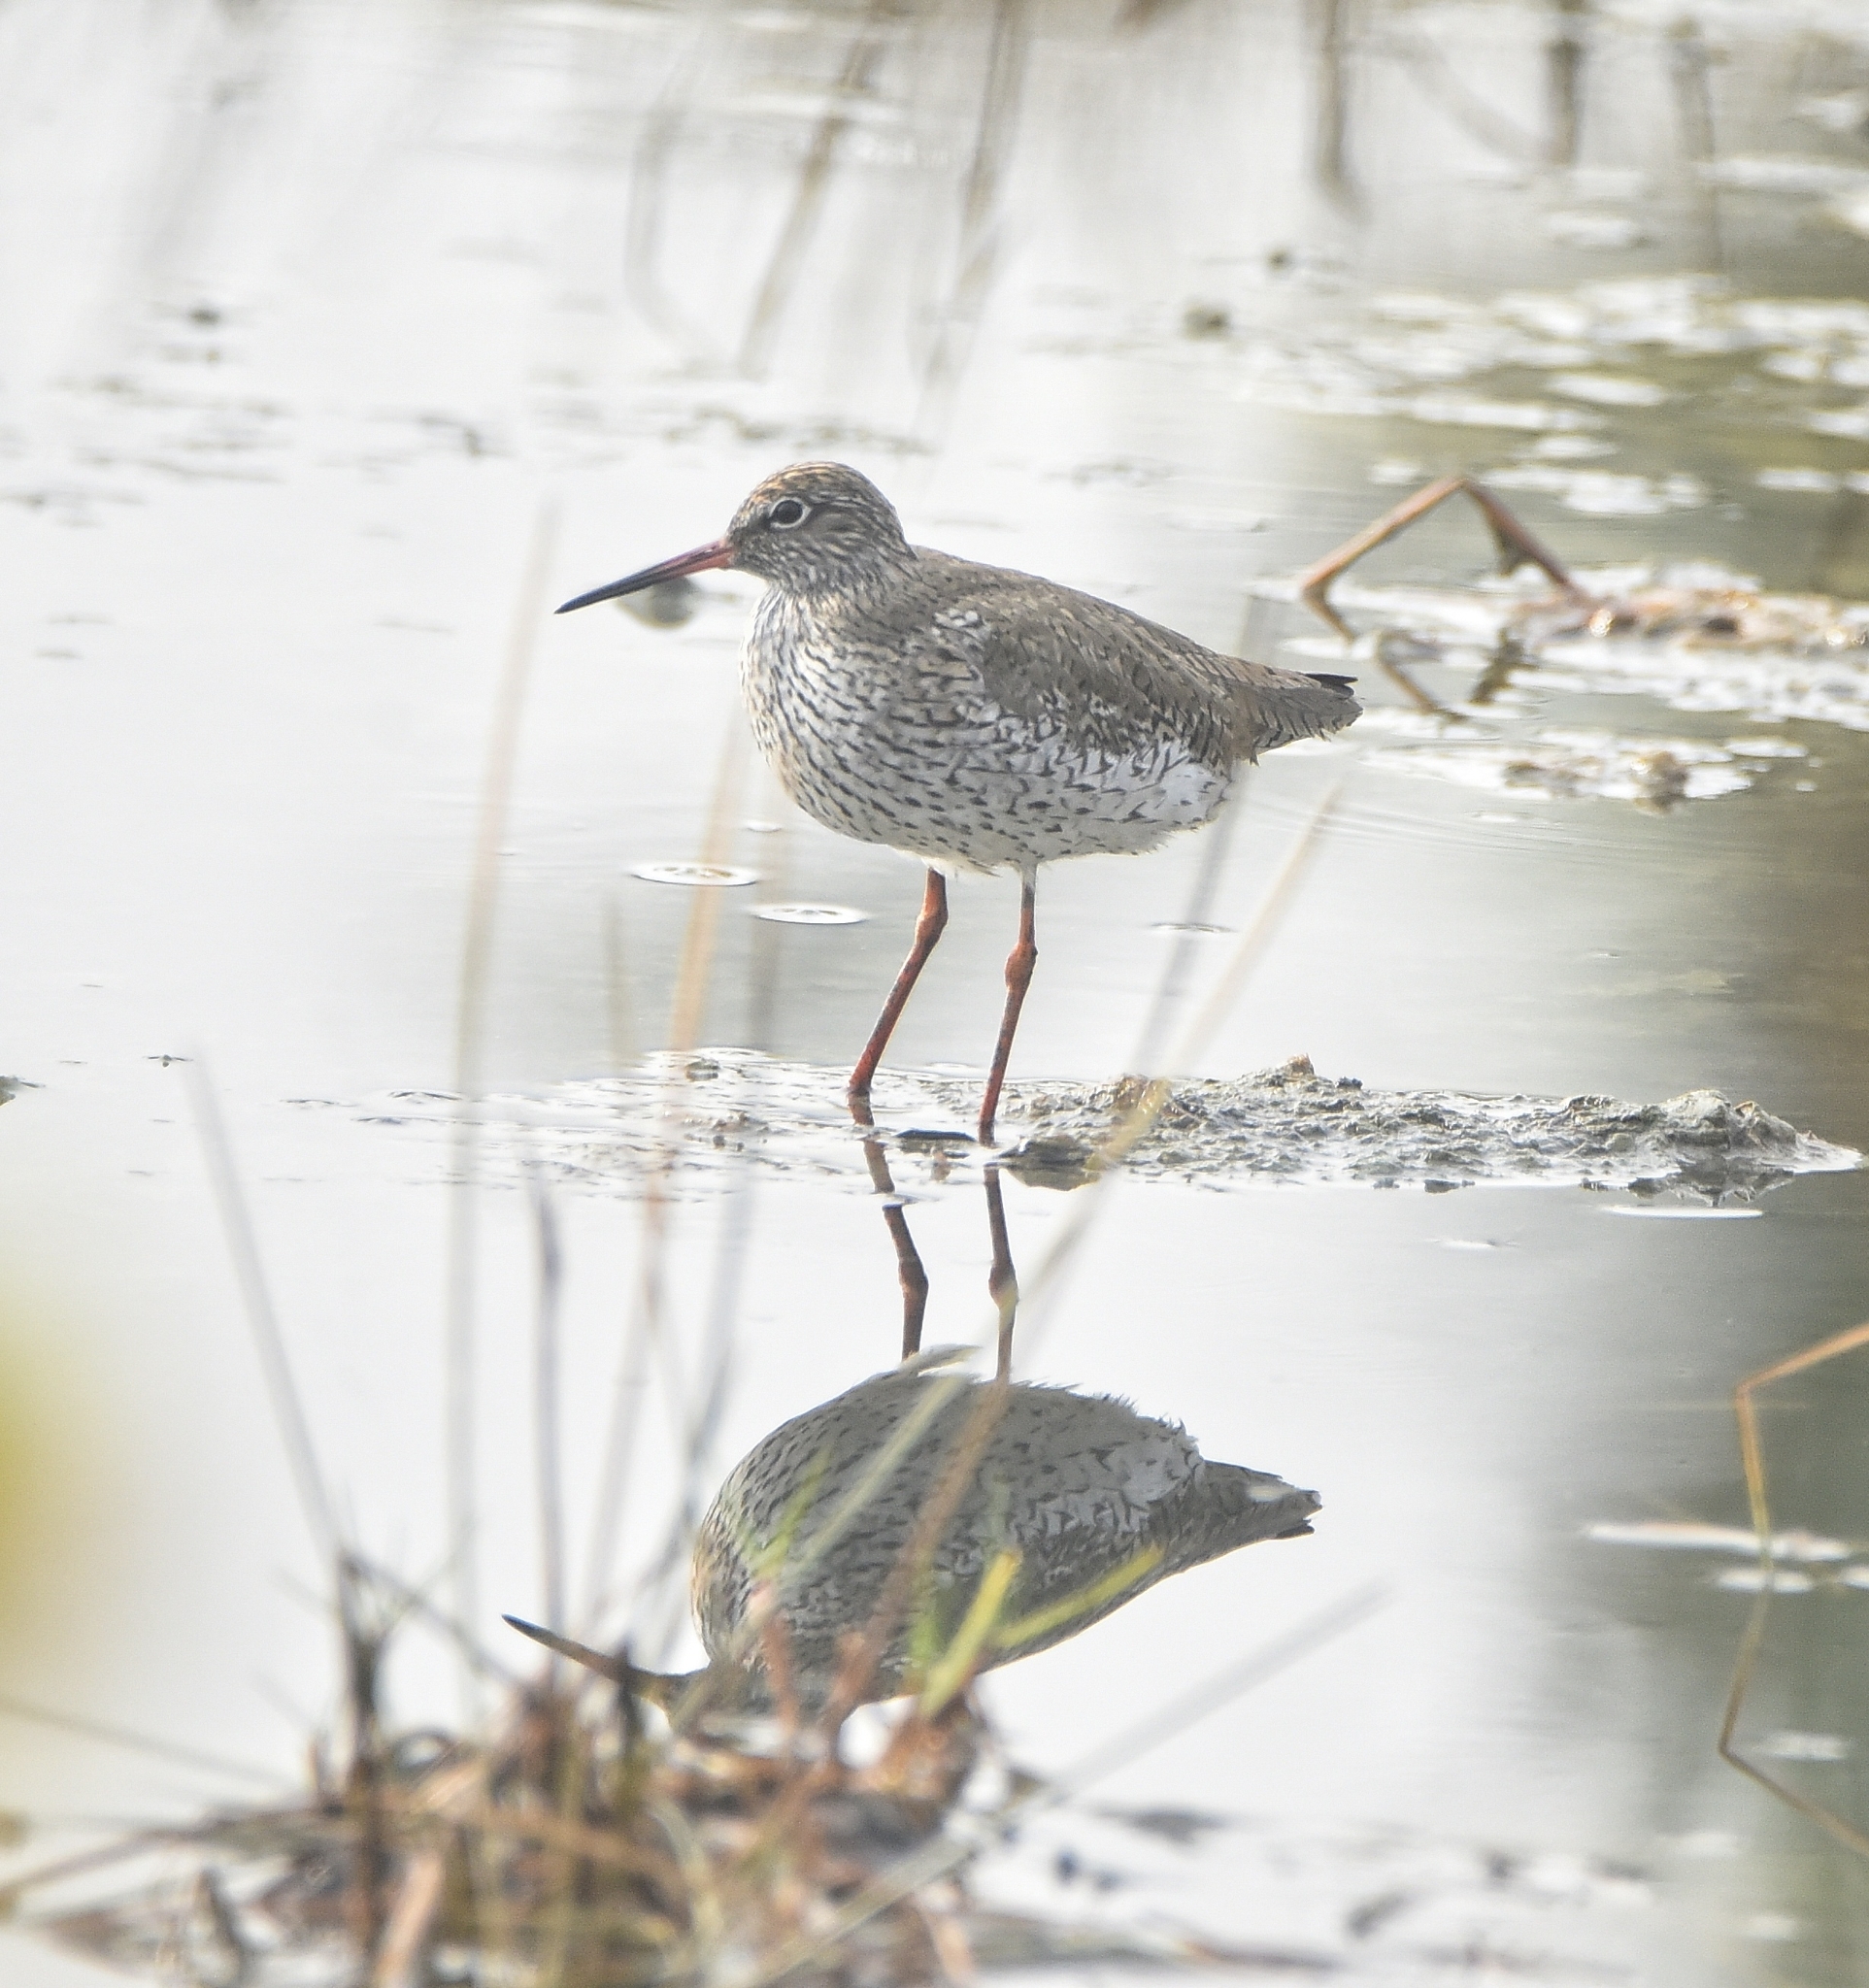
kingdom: Animalia
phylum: Chordata
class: Aves
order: Charadriiformes
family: Scolopacidae
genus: Tringa
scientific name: Tringa totanus
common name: Common redshank
